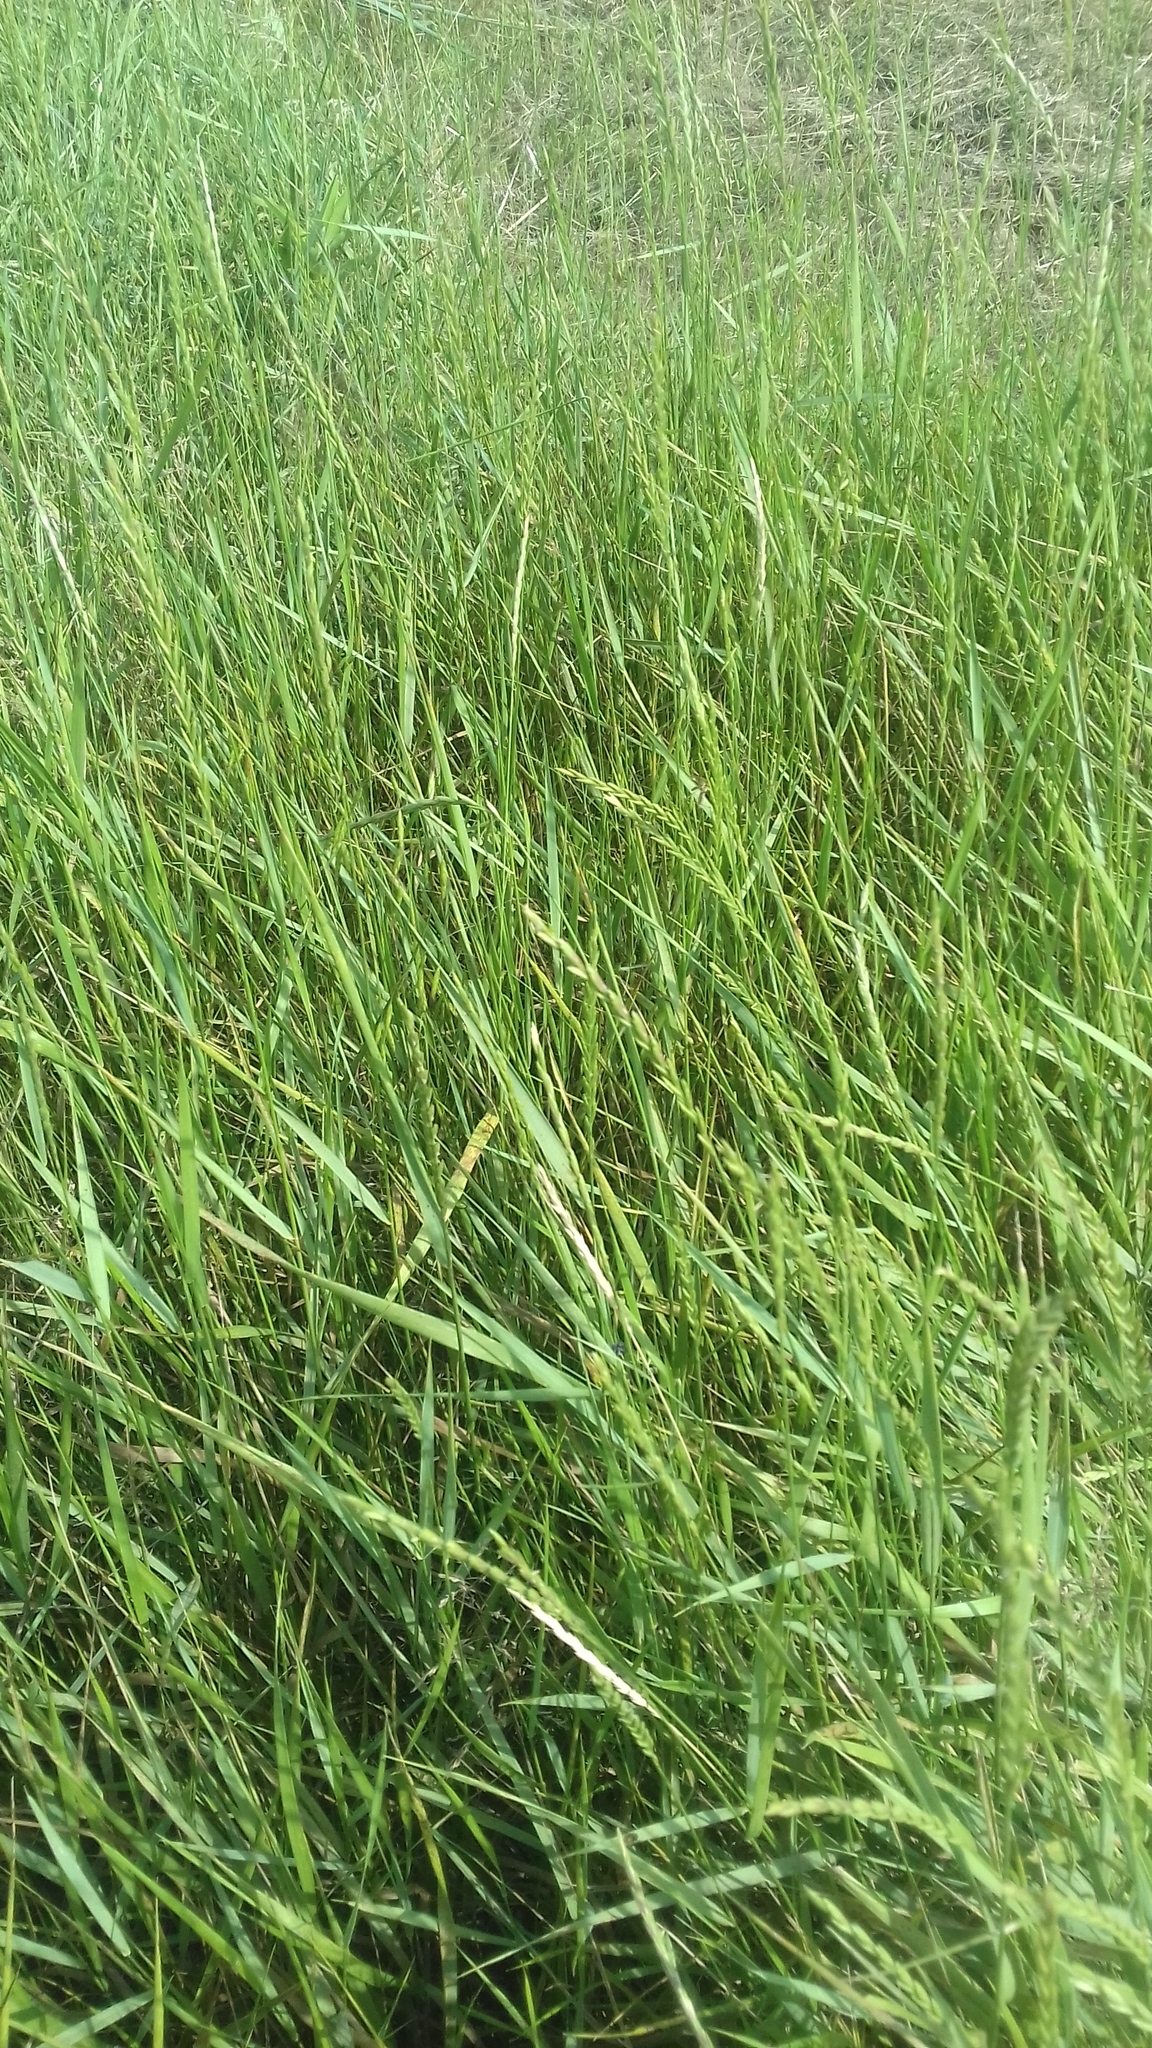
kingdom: Plantae
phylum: Tracheophyta
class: Liliopsida
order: Poales
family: Poaceae
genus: Elymus
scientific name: Elymus repens
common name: Quackgrass
